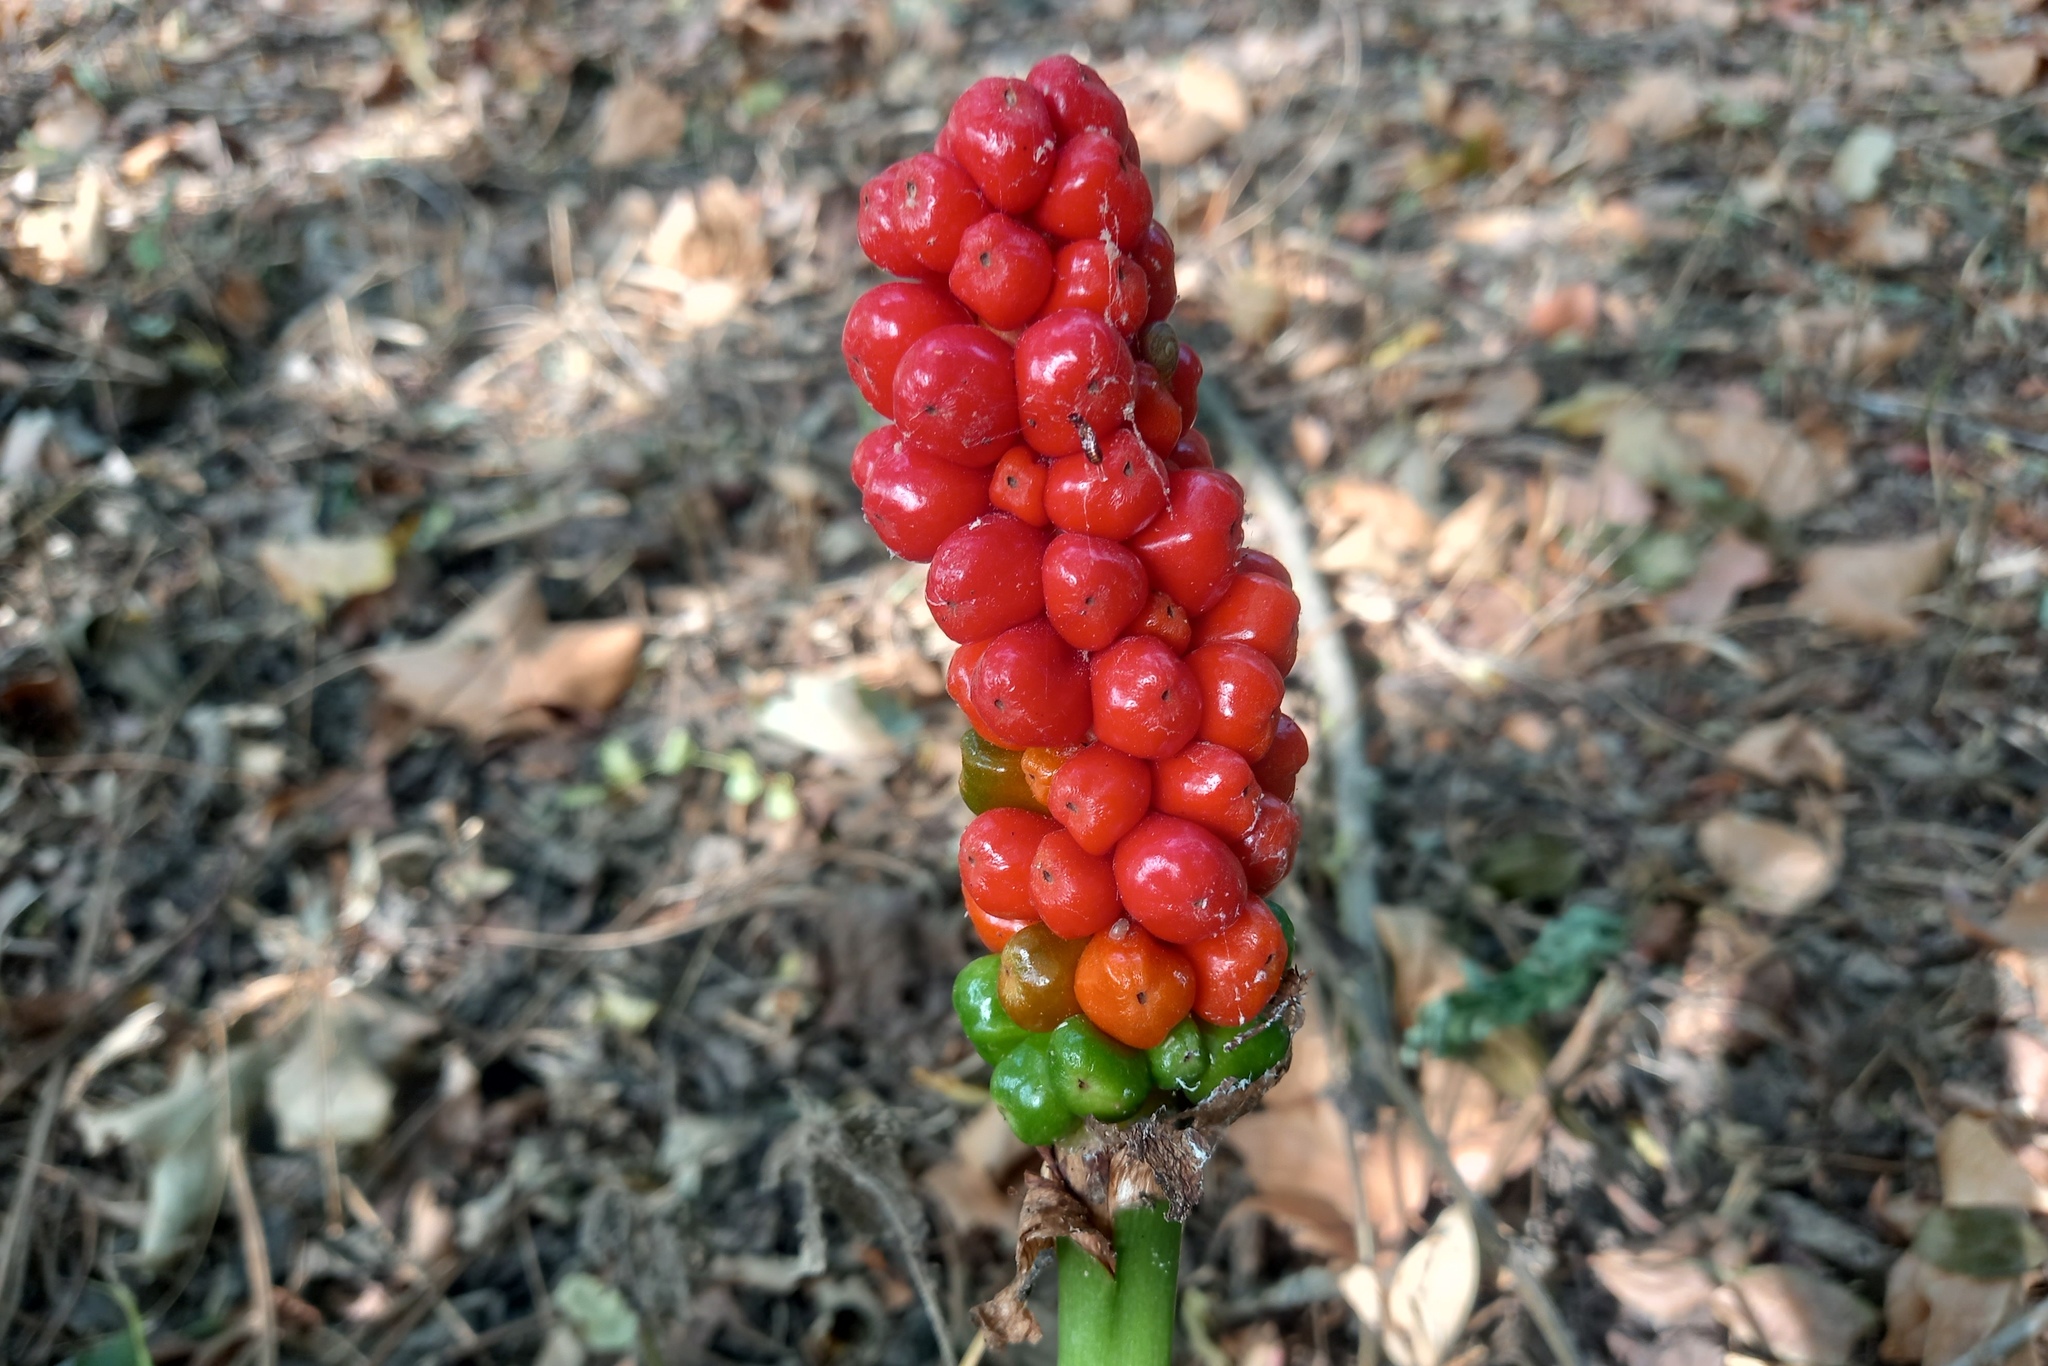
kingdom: Plantae
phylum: Tracheophyta
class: Liliopsida
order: Alismatales
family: Araceae
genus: Arum
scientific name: Arum italicum
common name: Italian lords-and-ladies
